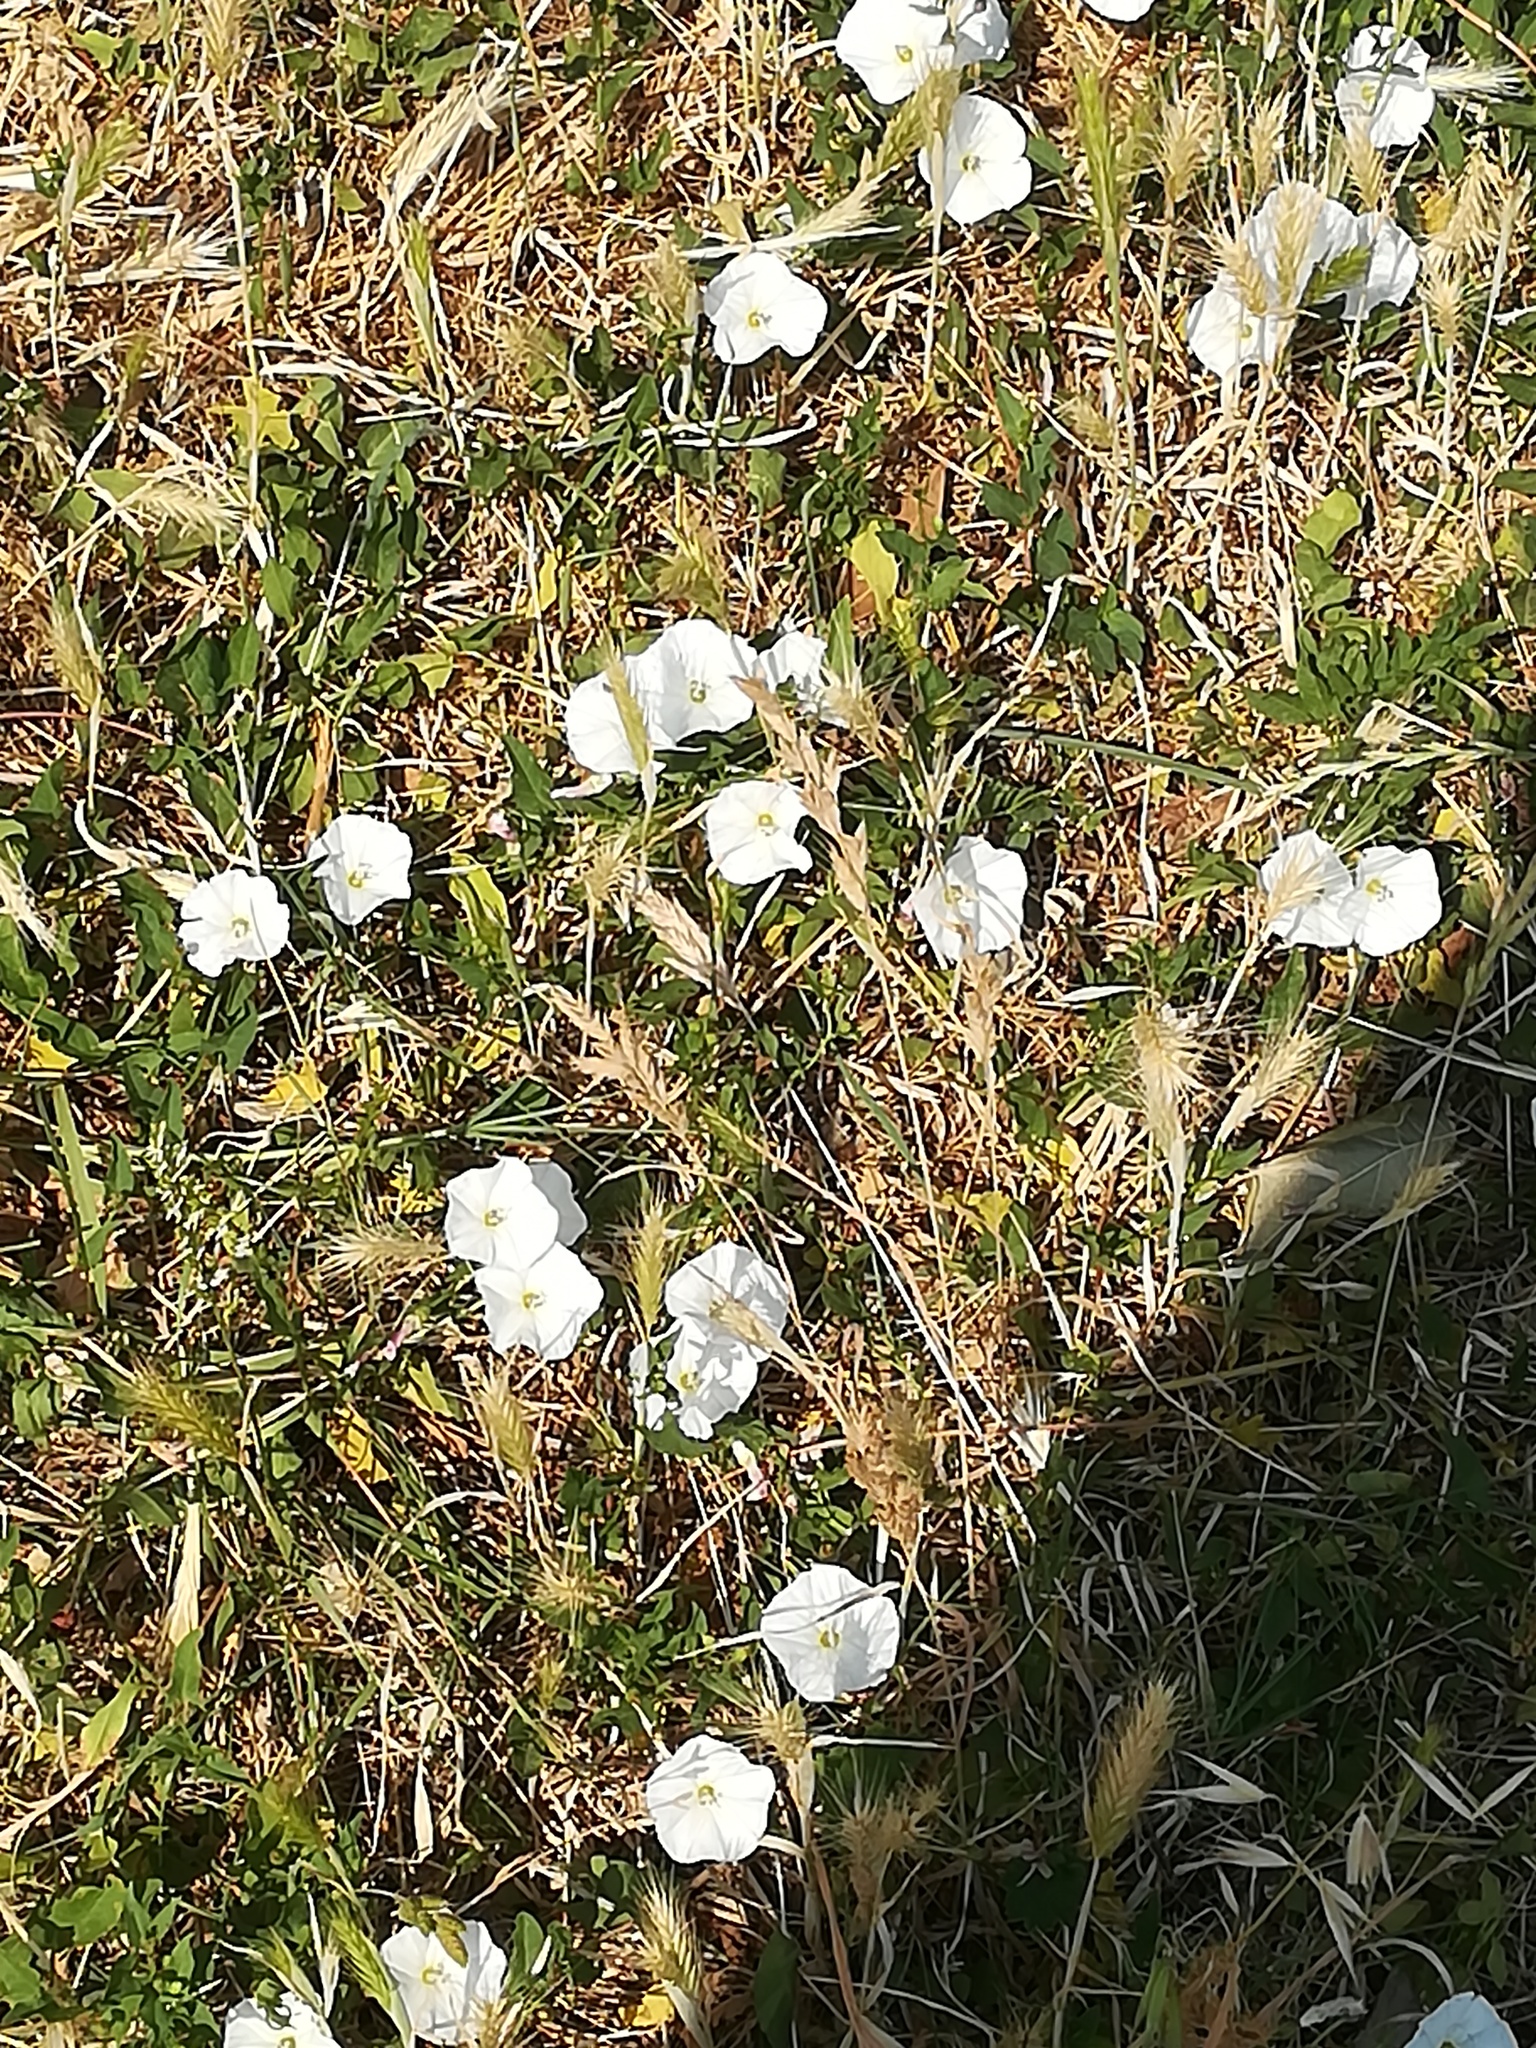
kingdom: Plantae
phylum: Tracheophyta
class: Magnoliopsida
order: Solanales
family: Convolvulaceae
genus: Convolvulus
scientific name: Convolvulus arvensis
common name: Field bindweed
